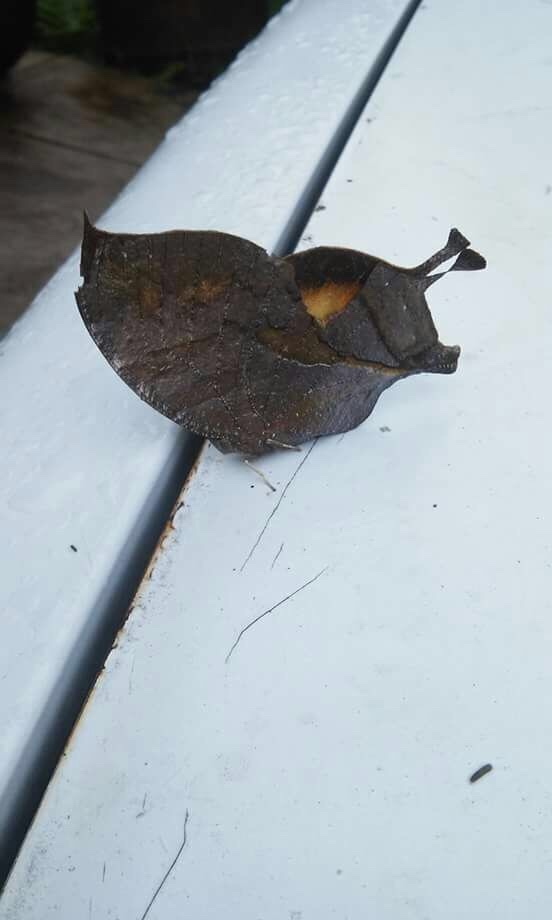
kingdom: Animalia
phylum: Arthropoda
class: Insecta
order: Lepidoptera
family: Nymphalidae
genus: Consul
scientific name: Consul electra
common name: Pearly leafwing
